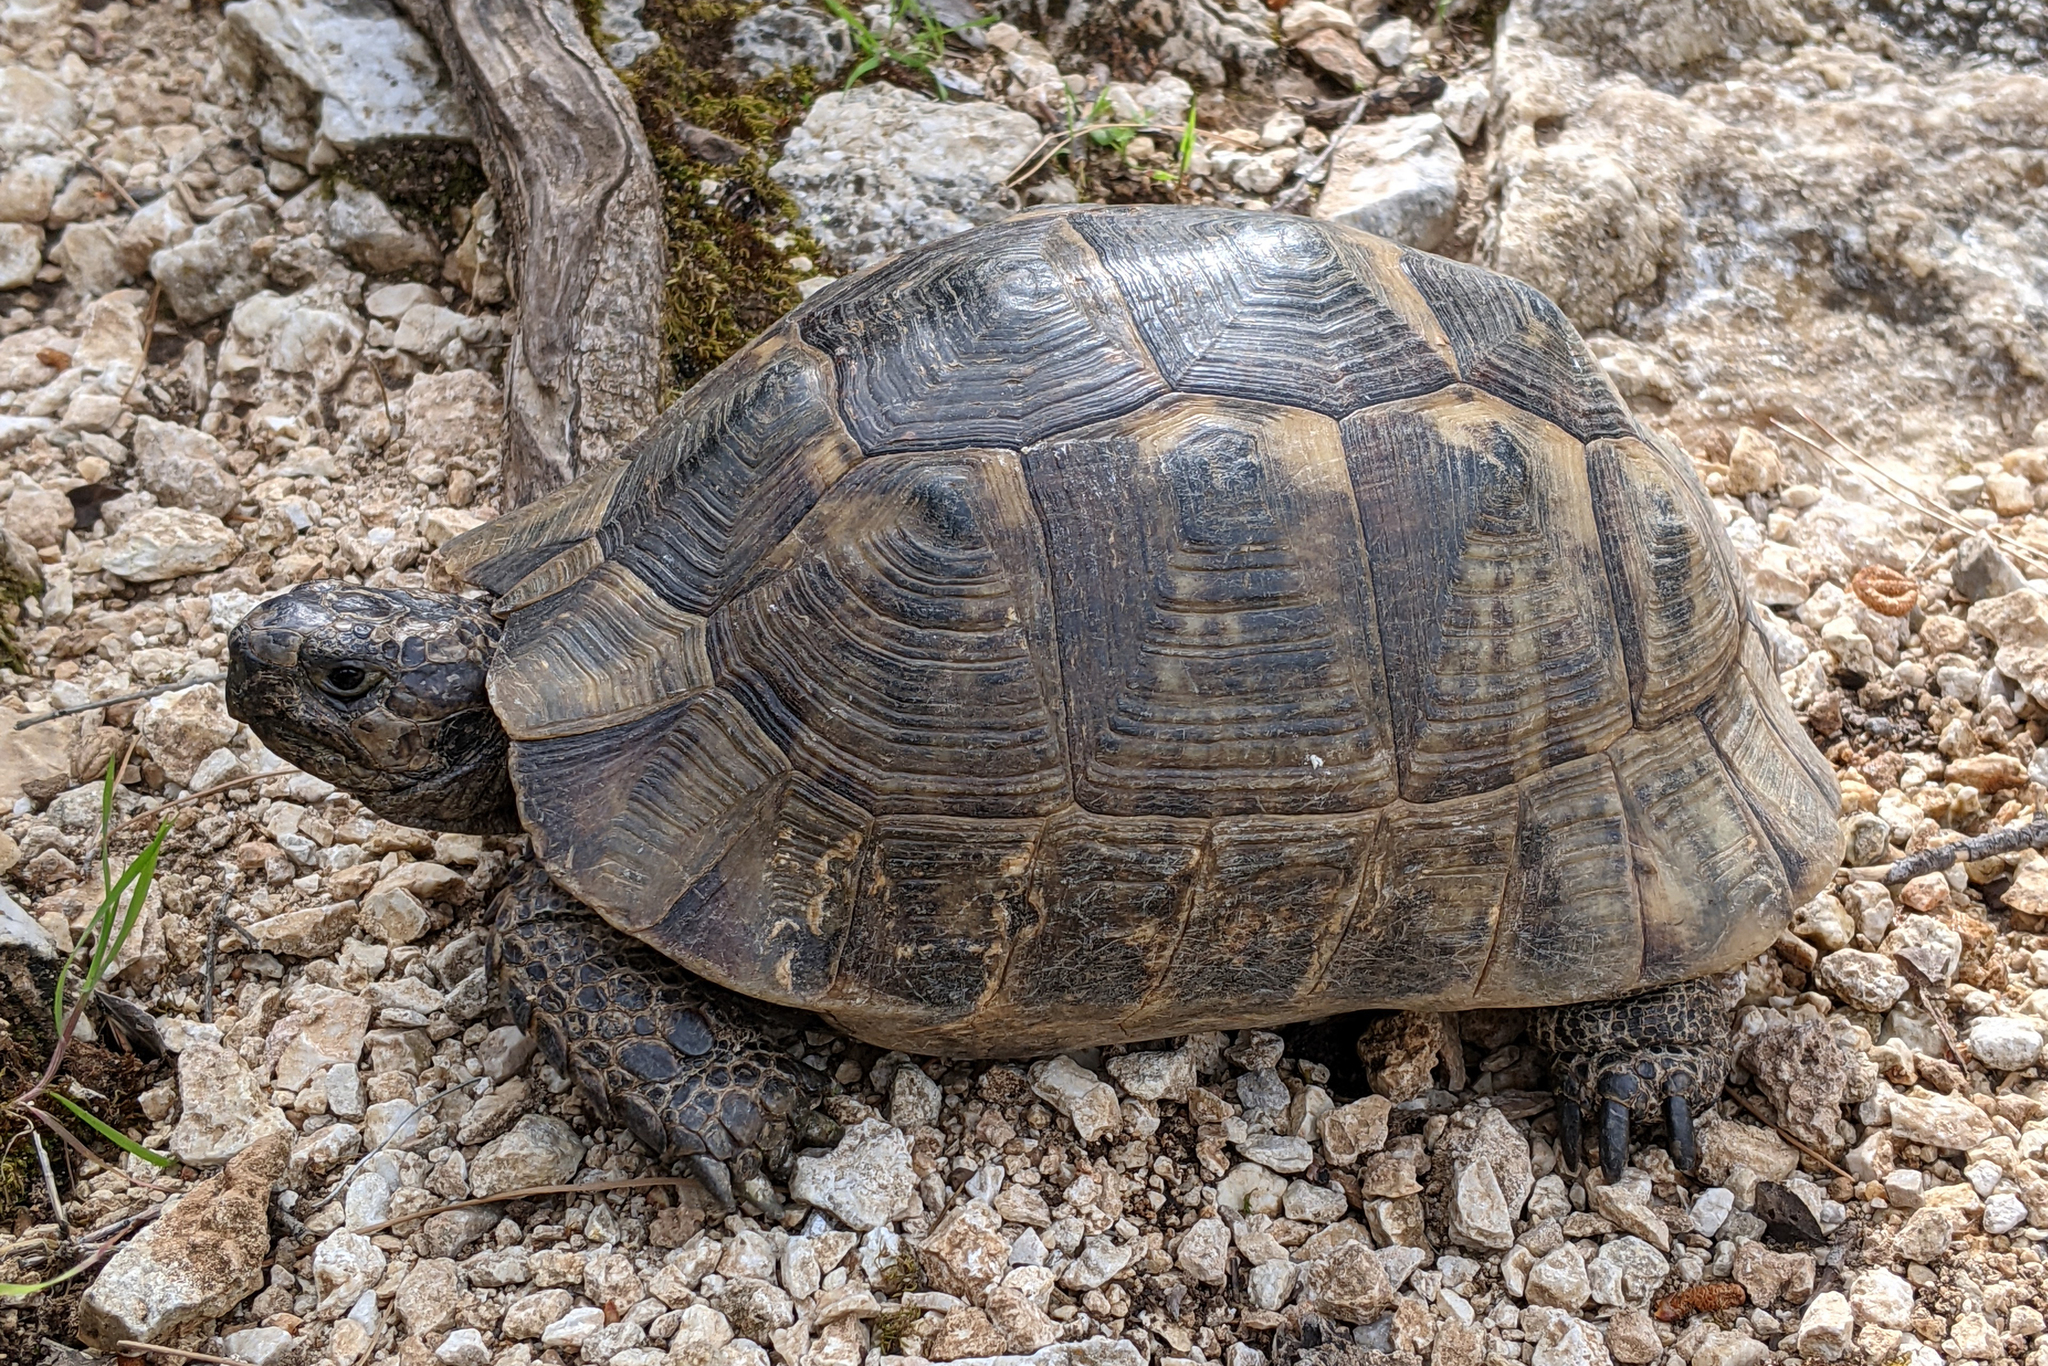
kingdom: Animalia
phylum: Chordata
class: Testudines
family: Testudinidae
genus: Testudo
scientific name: Testudo graeca
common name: Common tortoise
